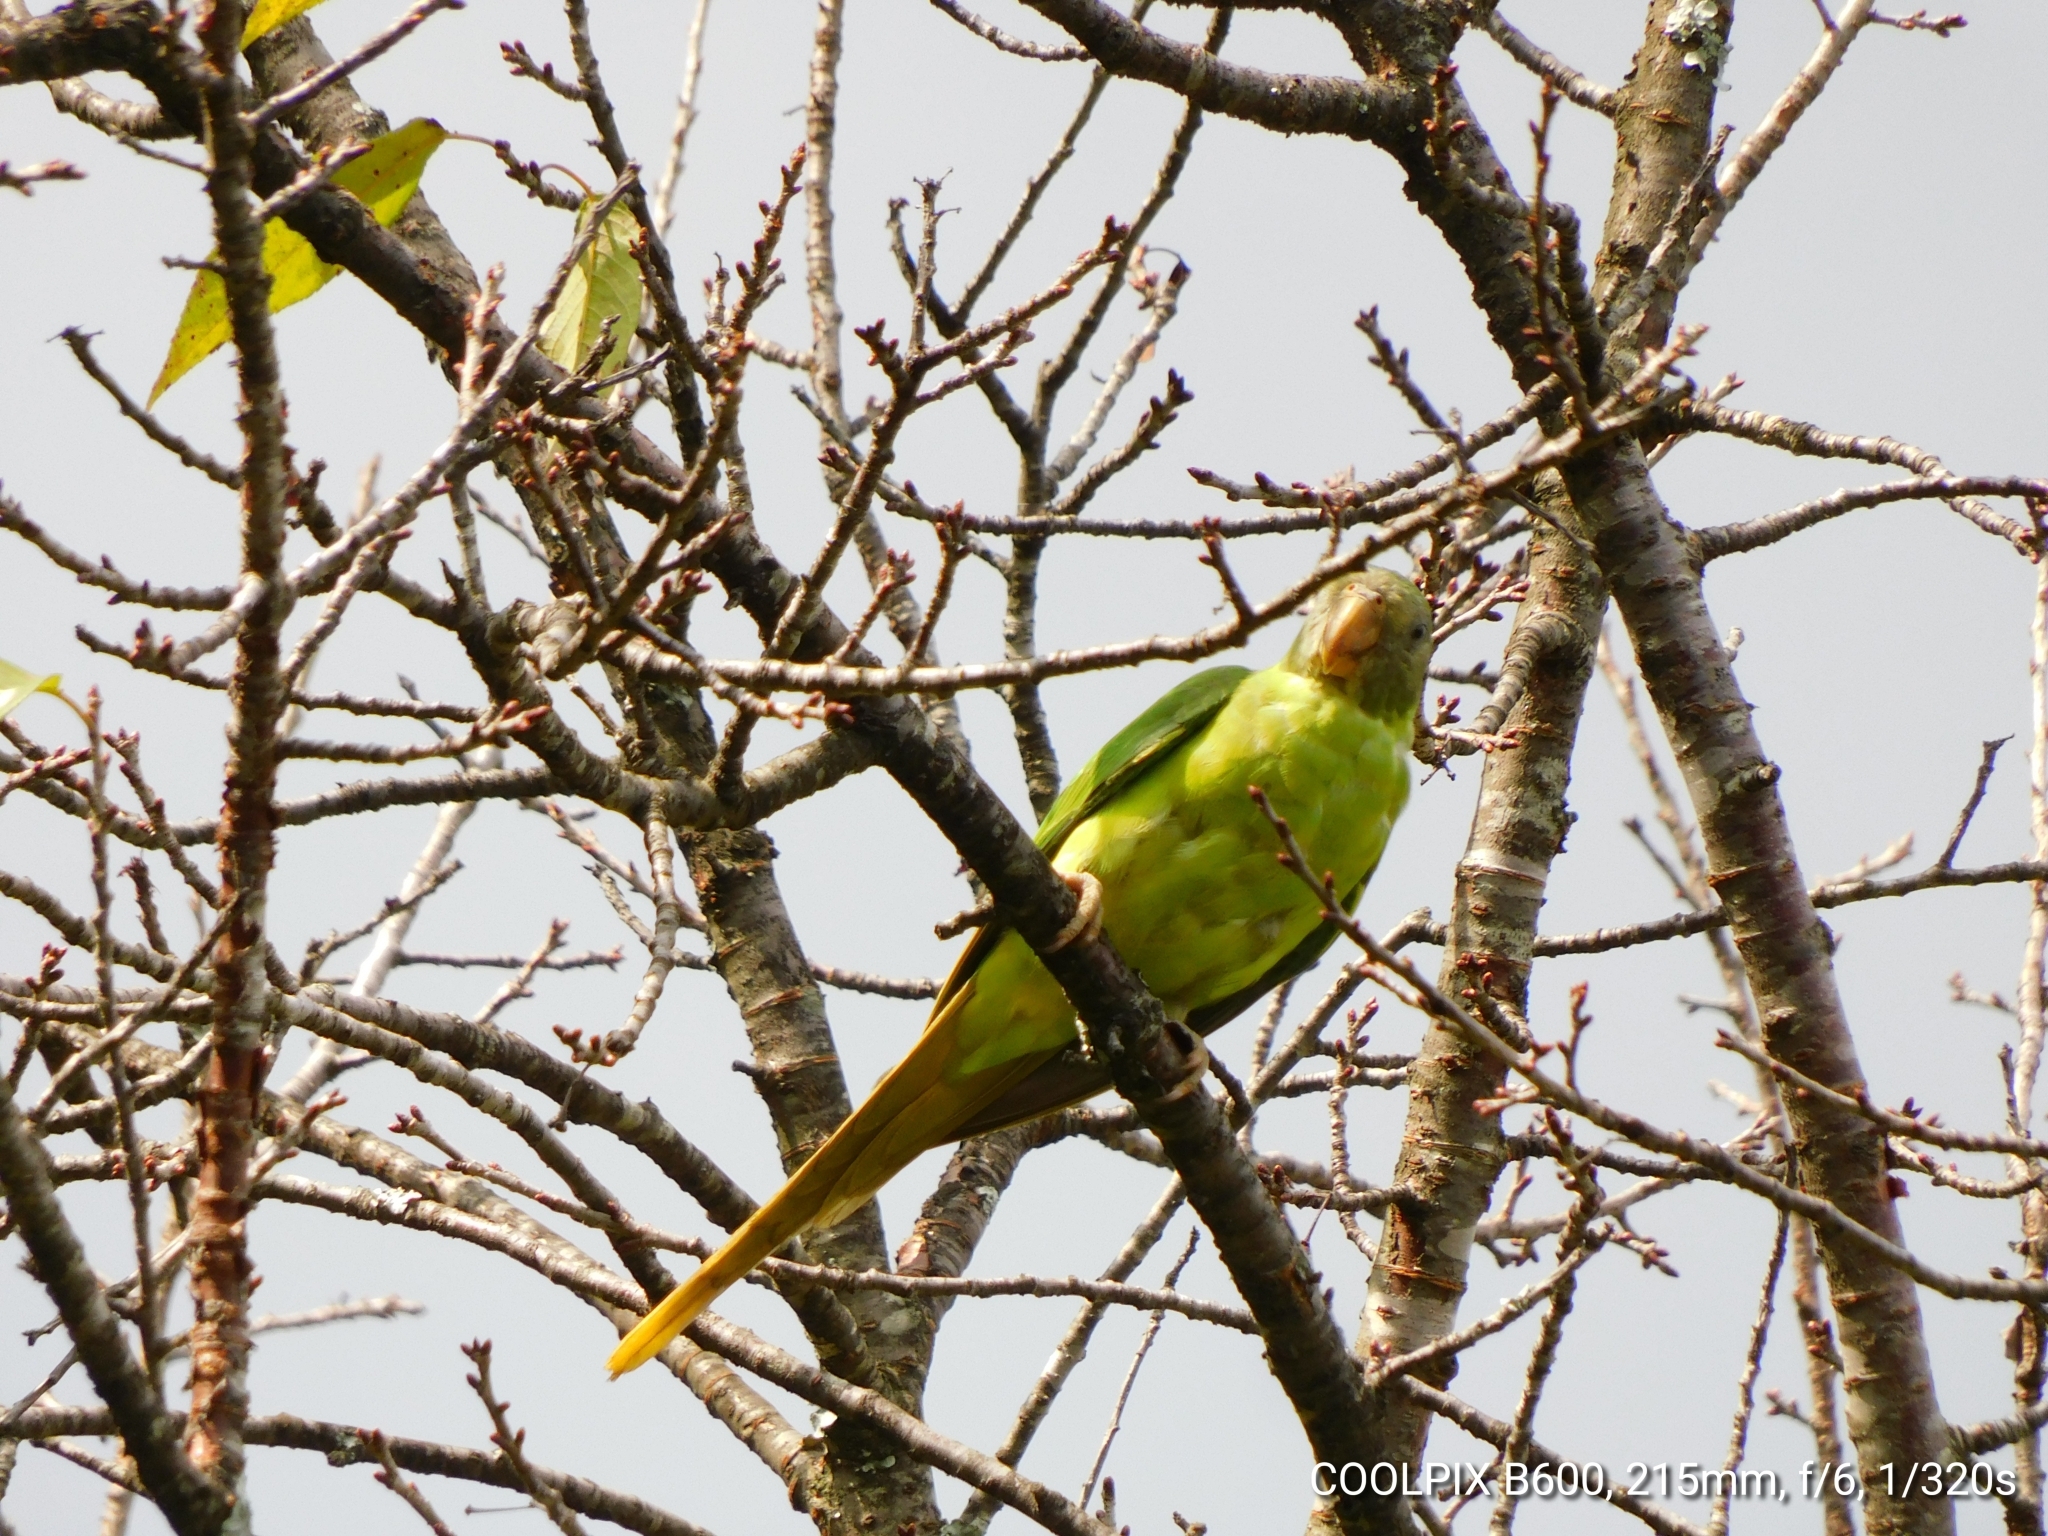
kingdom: Animalia
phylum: Chordata
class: Aves
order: Psittaciformes
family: Psittacidae
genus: Psittacula
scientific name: Psittacula himalayana
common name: Slaty-headed parakeet
